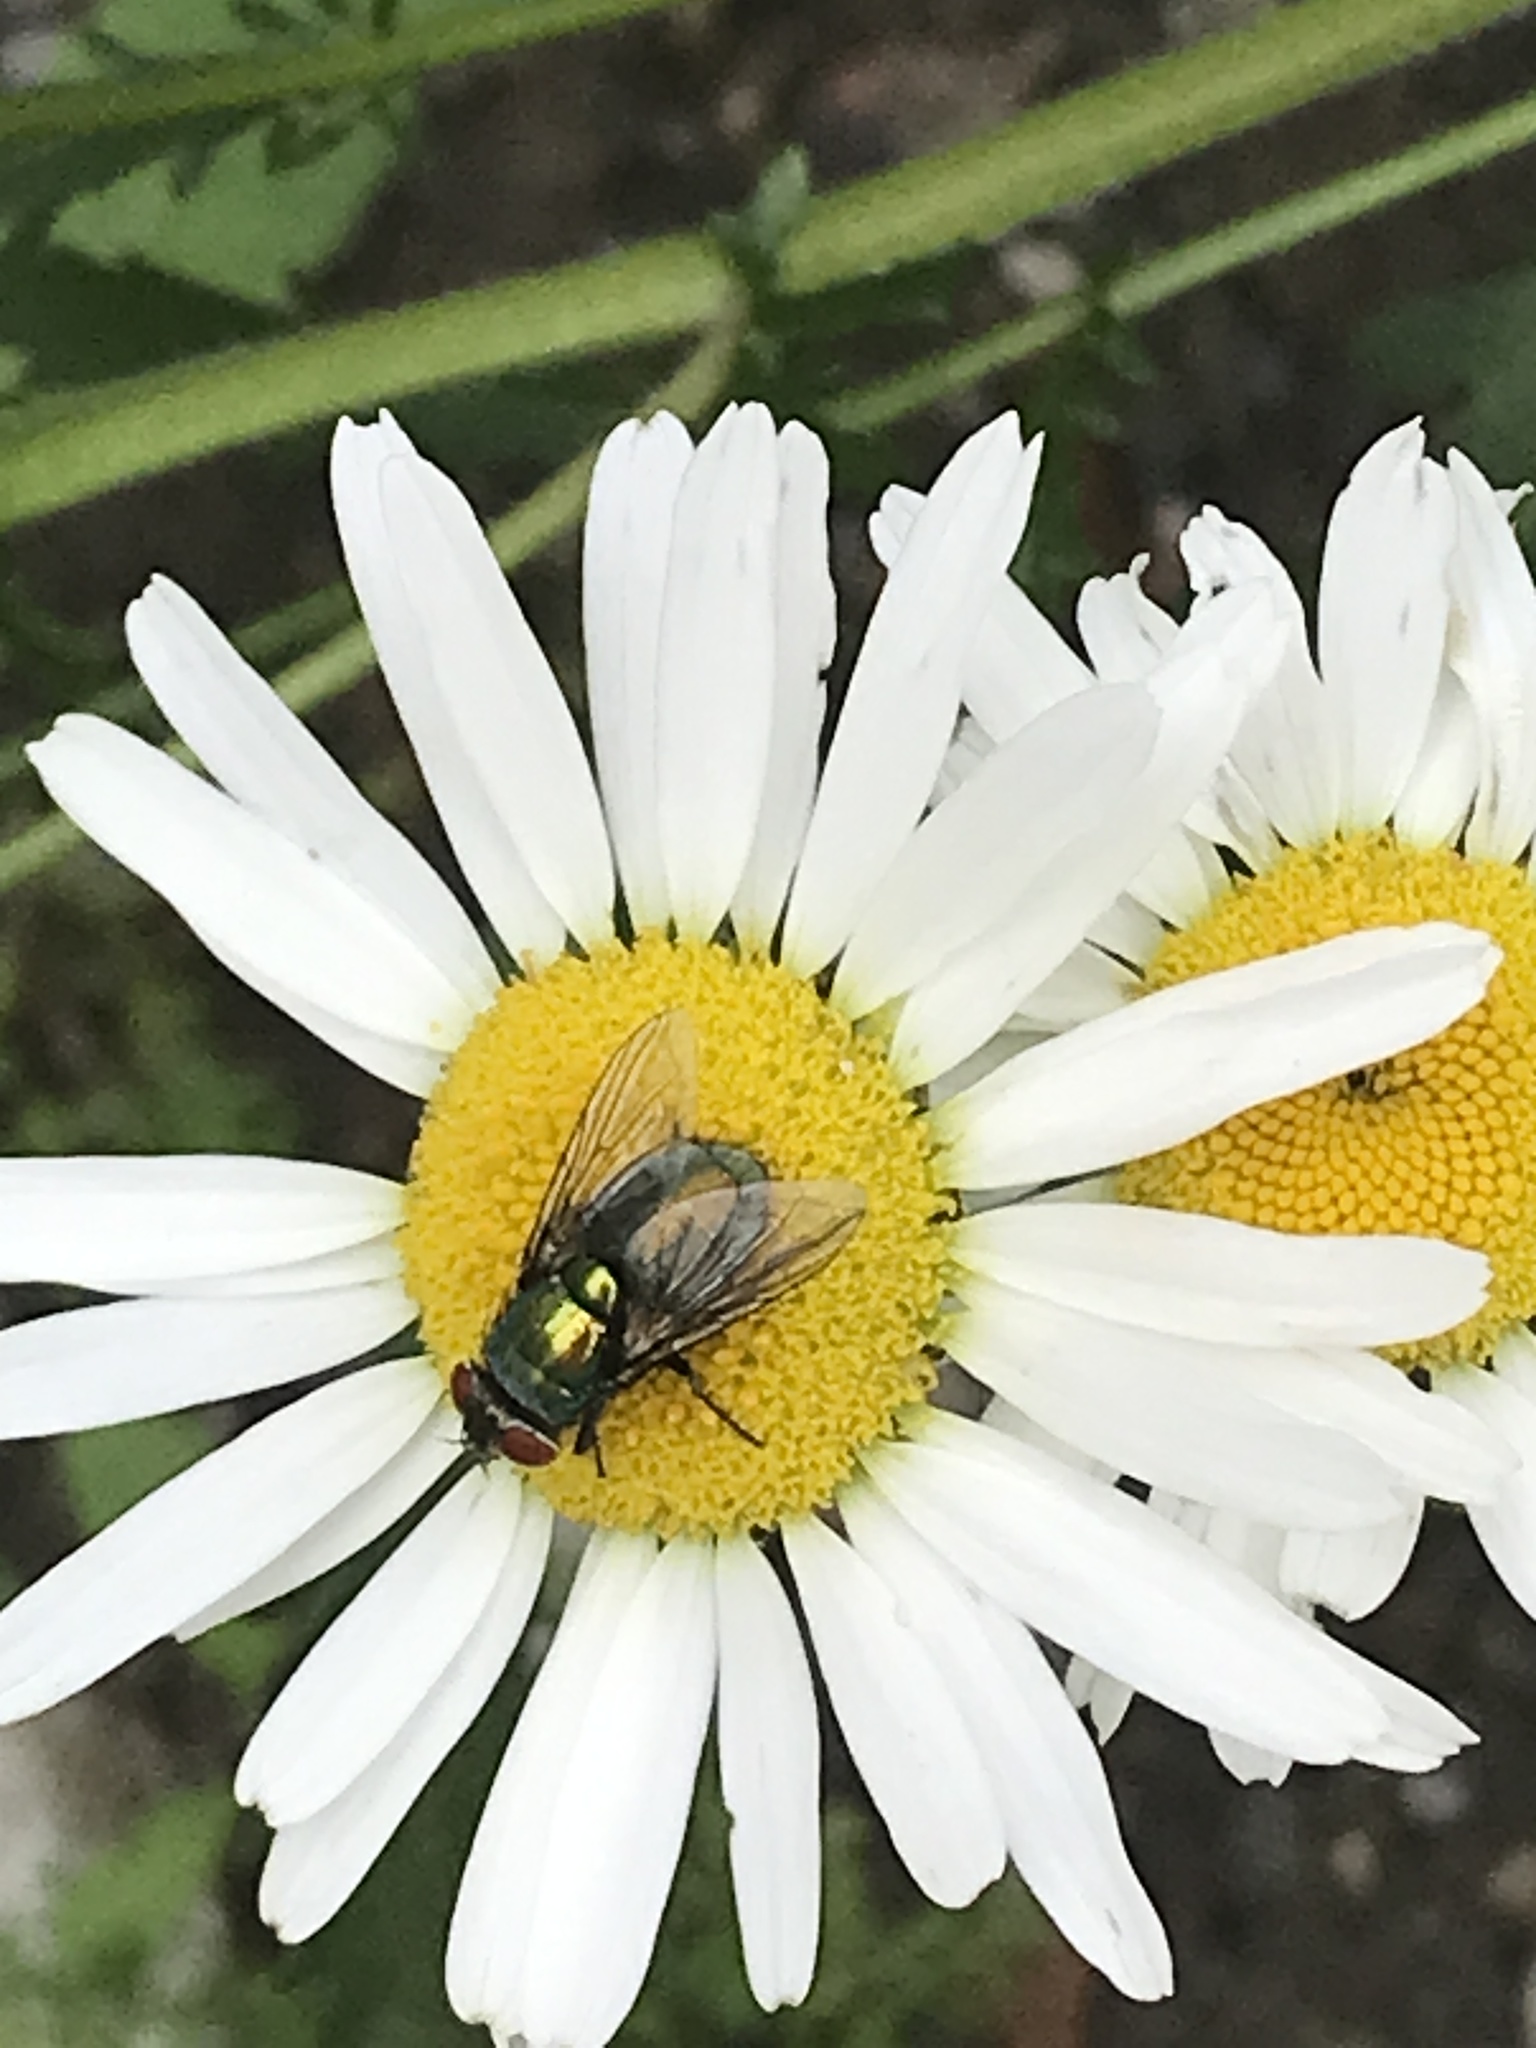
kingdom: Animalia
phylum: Arthropoda
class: Insecta
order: Diptera
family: Calliphoridae
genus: Lucilia
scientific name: Lucilia sericata
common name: Blow fly
